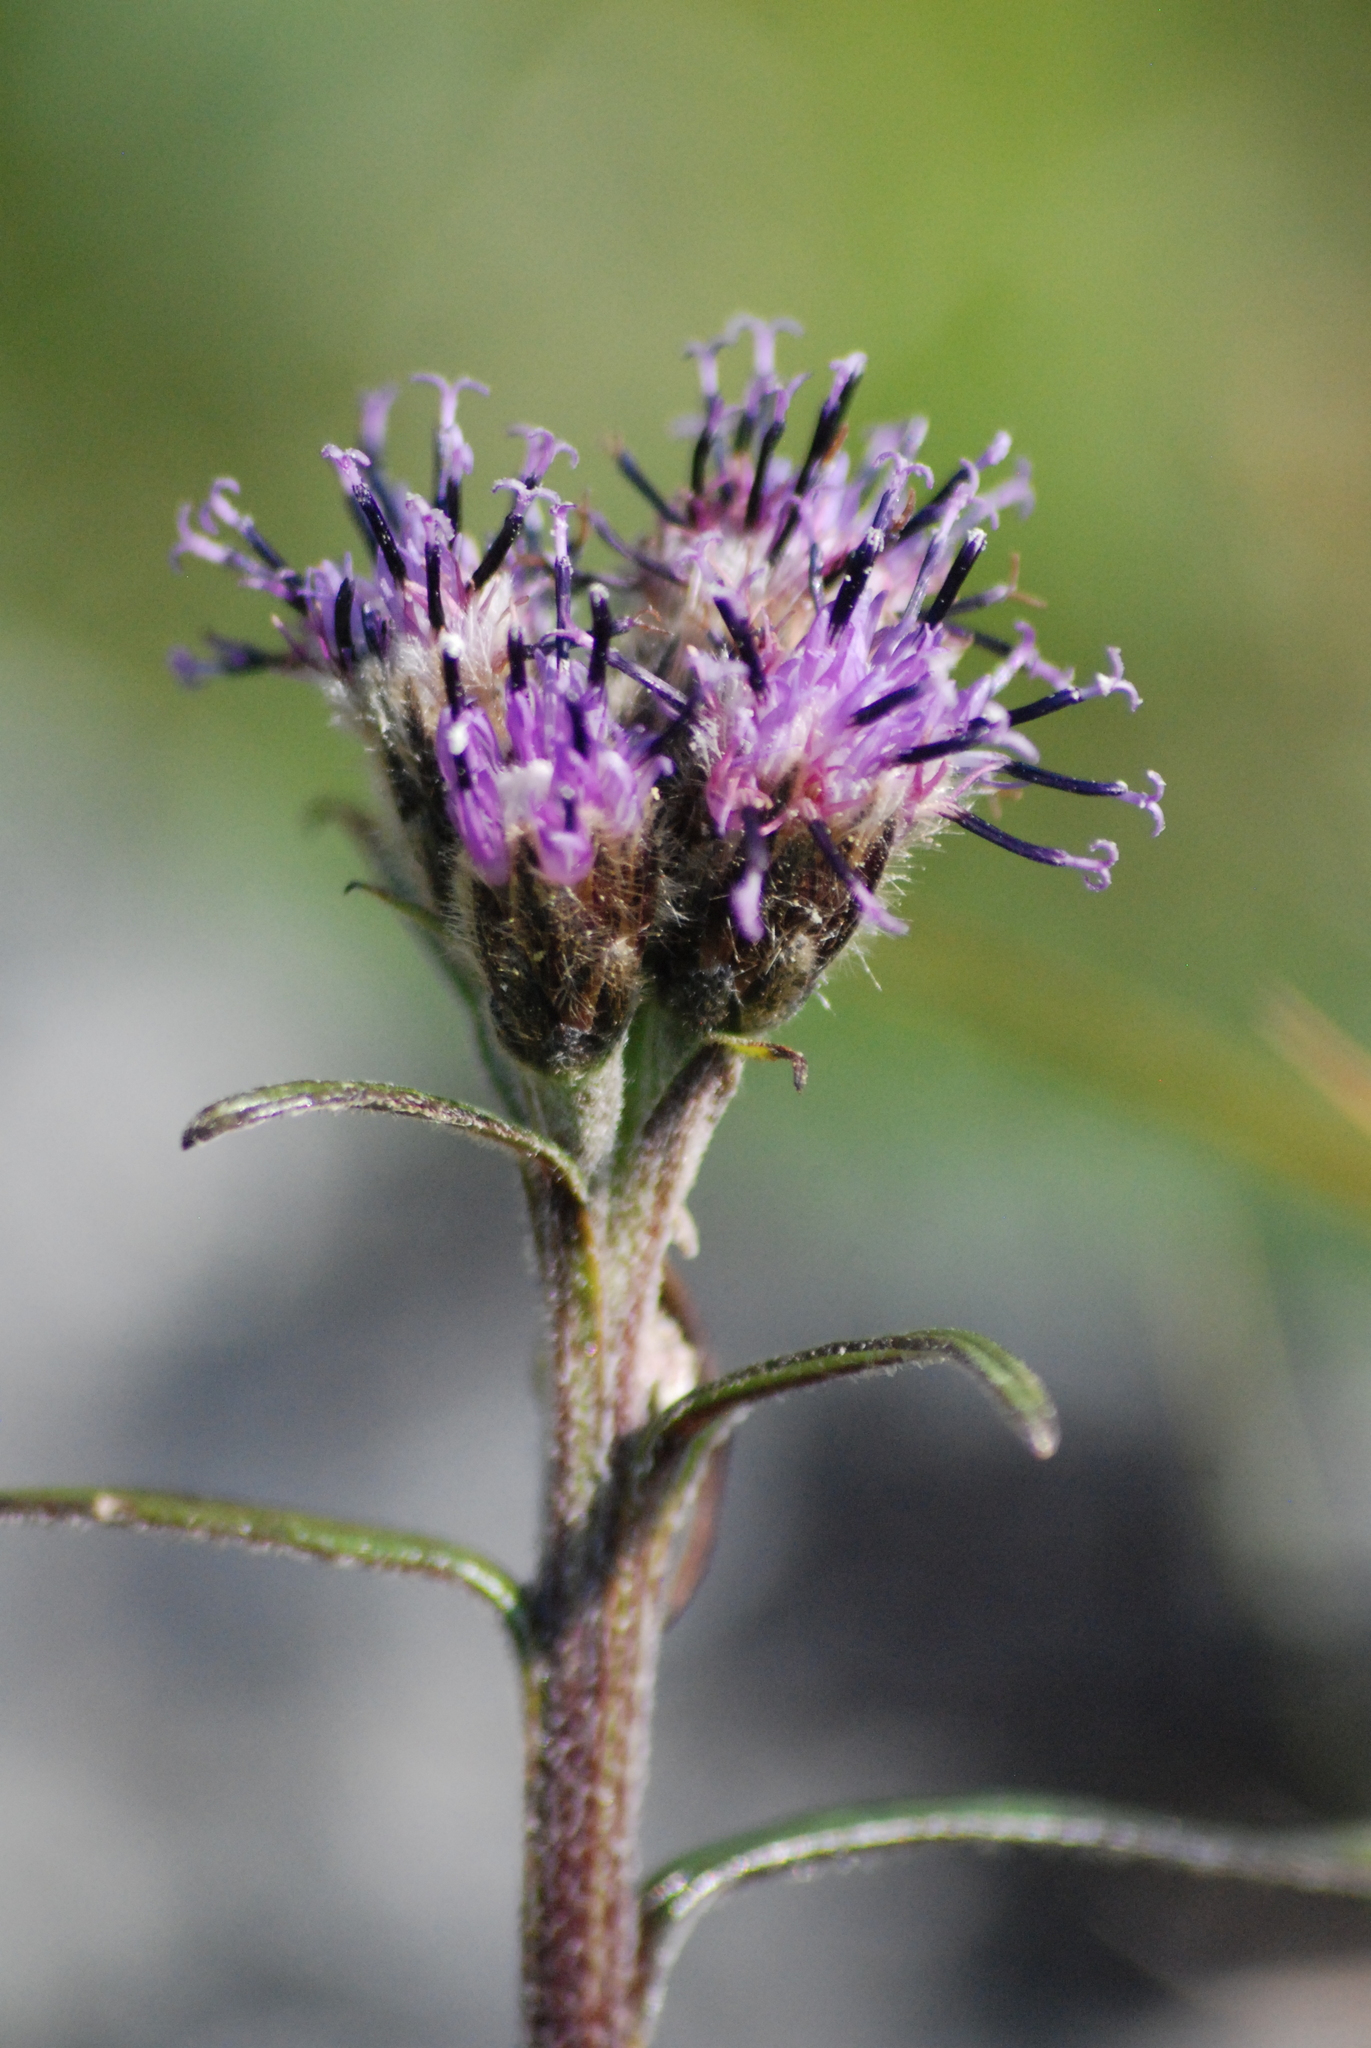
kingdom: Plantae
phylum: Tracheophyta
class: Magnoliopsida
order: Asterales
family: Asteraceae
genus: Saussurea
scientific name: Saussurea angustifolia
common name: Common saussurea
